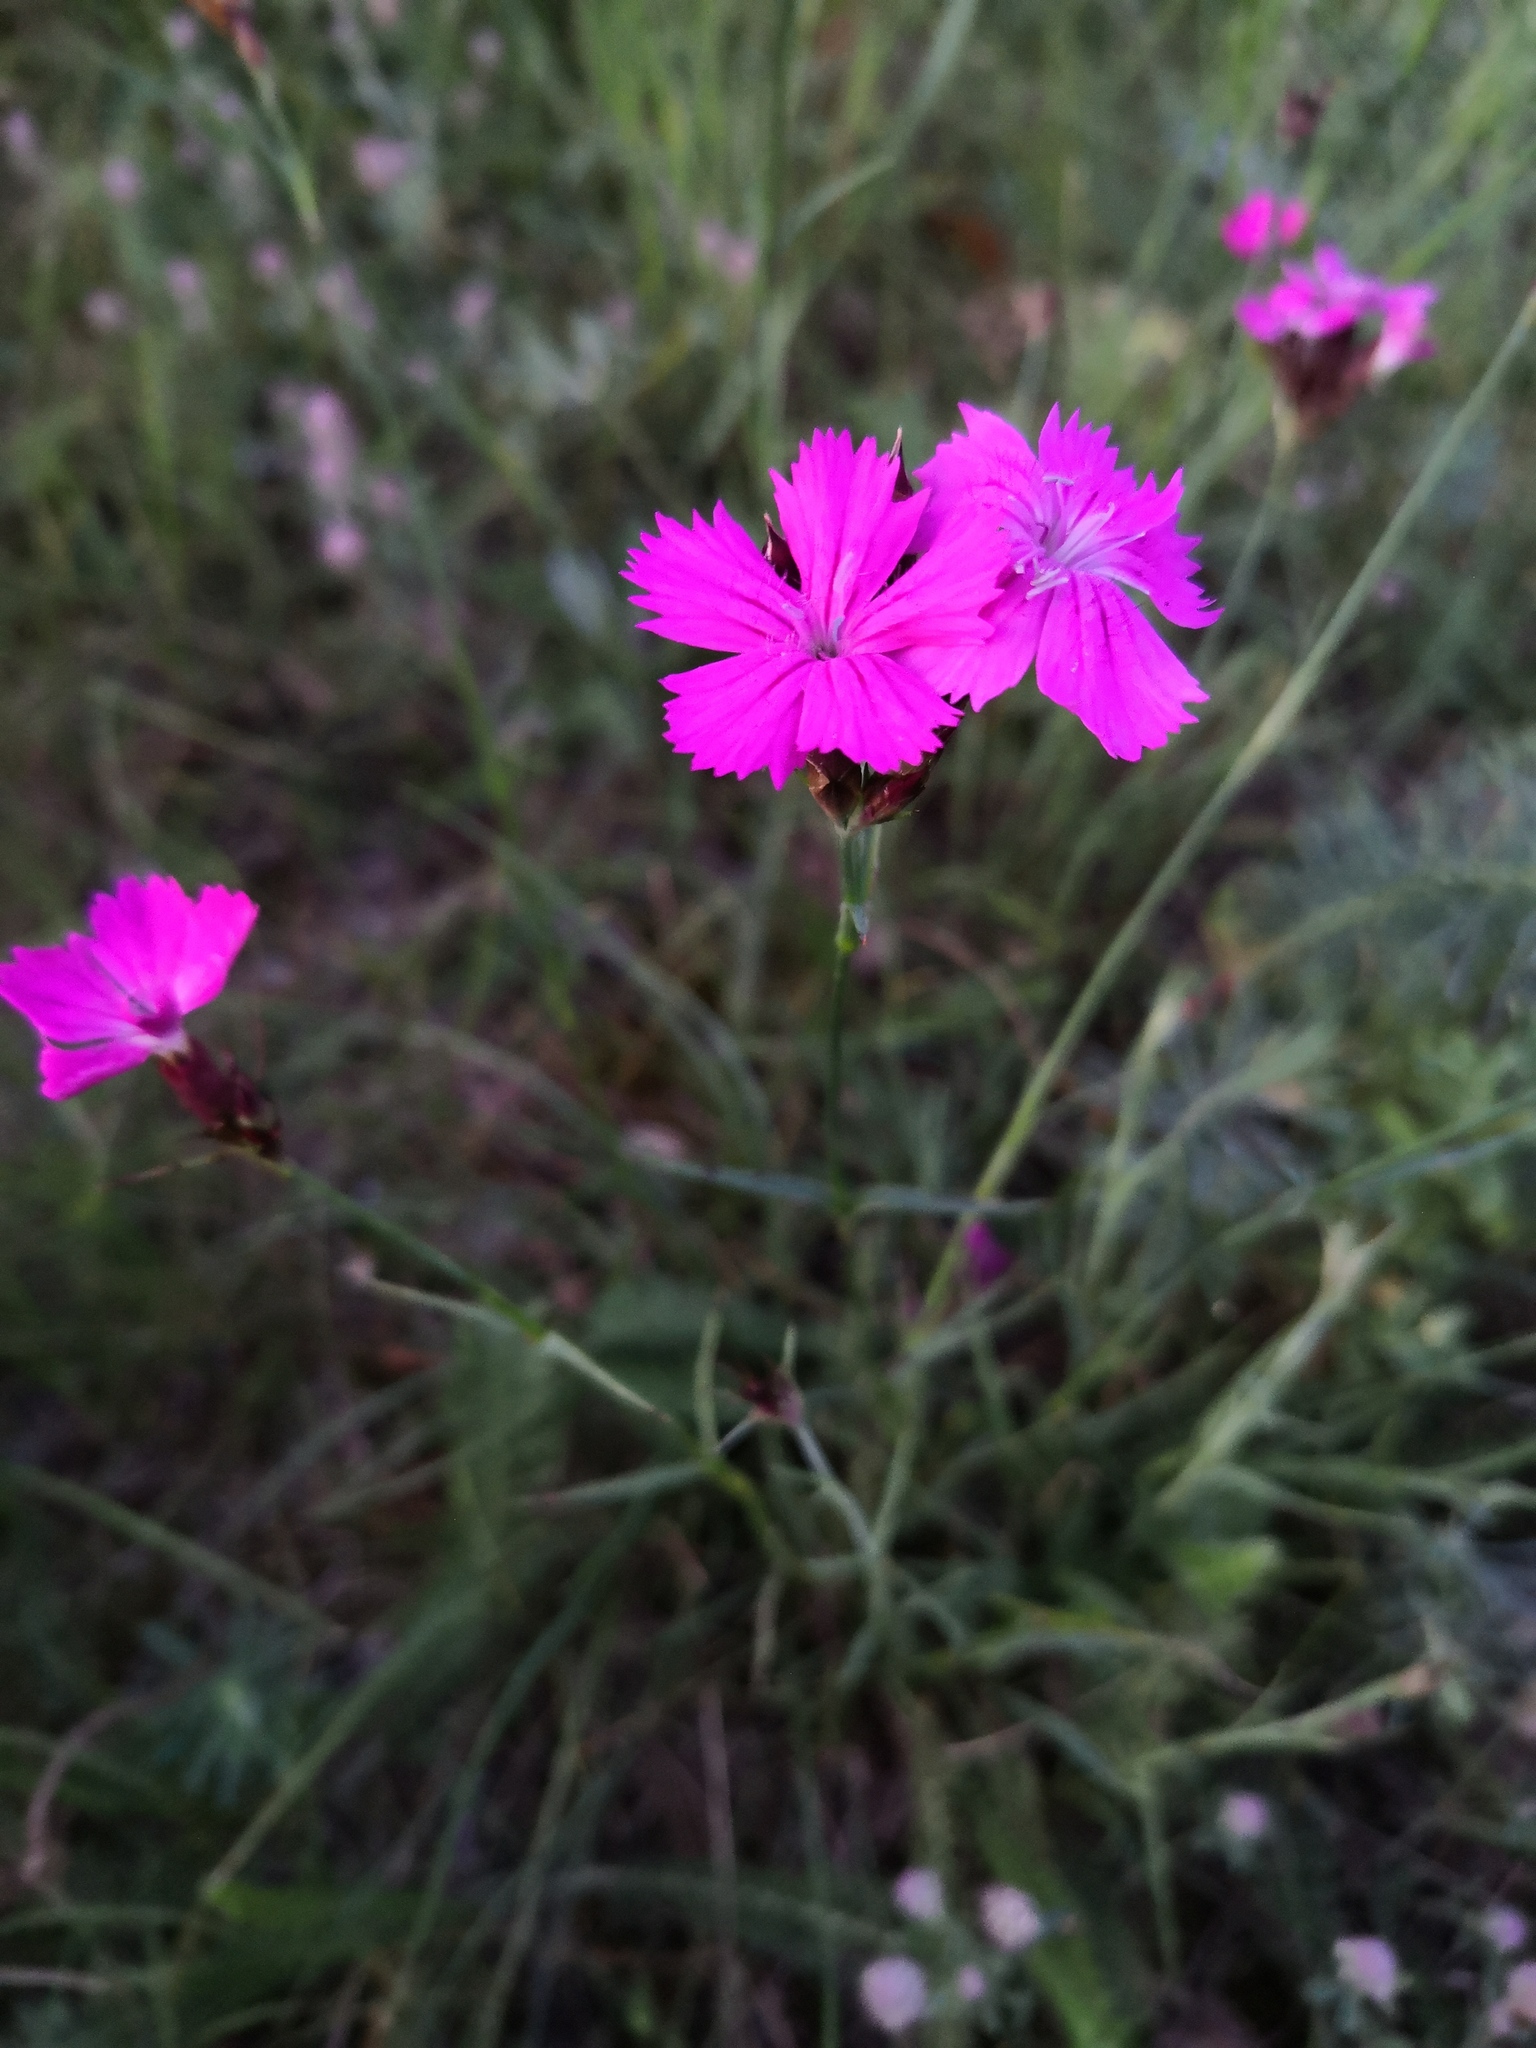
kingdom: Plantae
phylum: Tracheophyta
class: Magnoliopsida
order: Caryophyllales
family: Caryophyllaceae
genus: Dianthus
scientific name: Dianthus carthusianorum
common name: Carthusian pink
